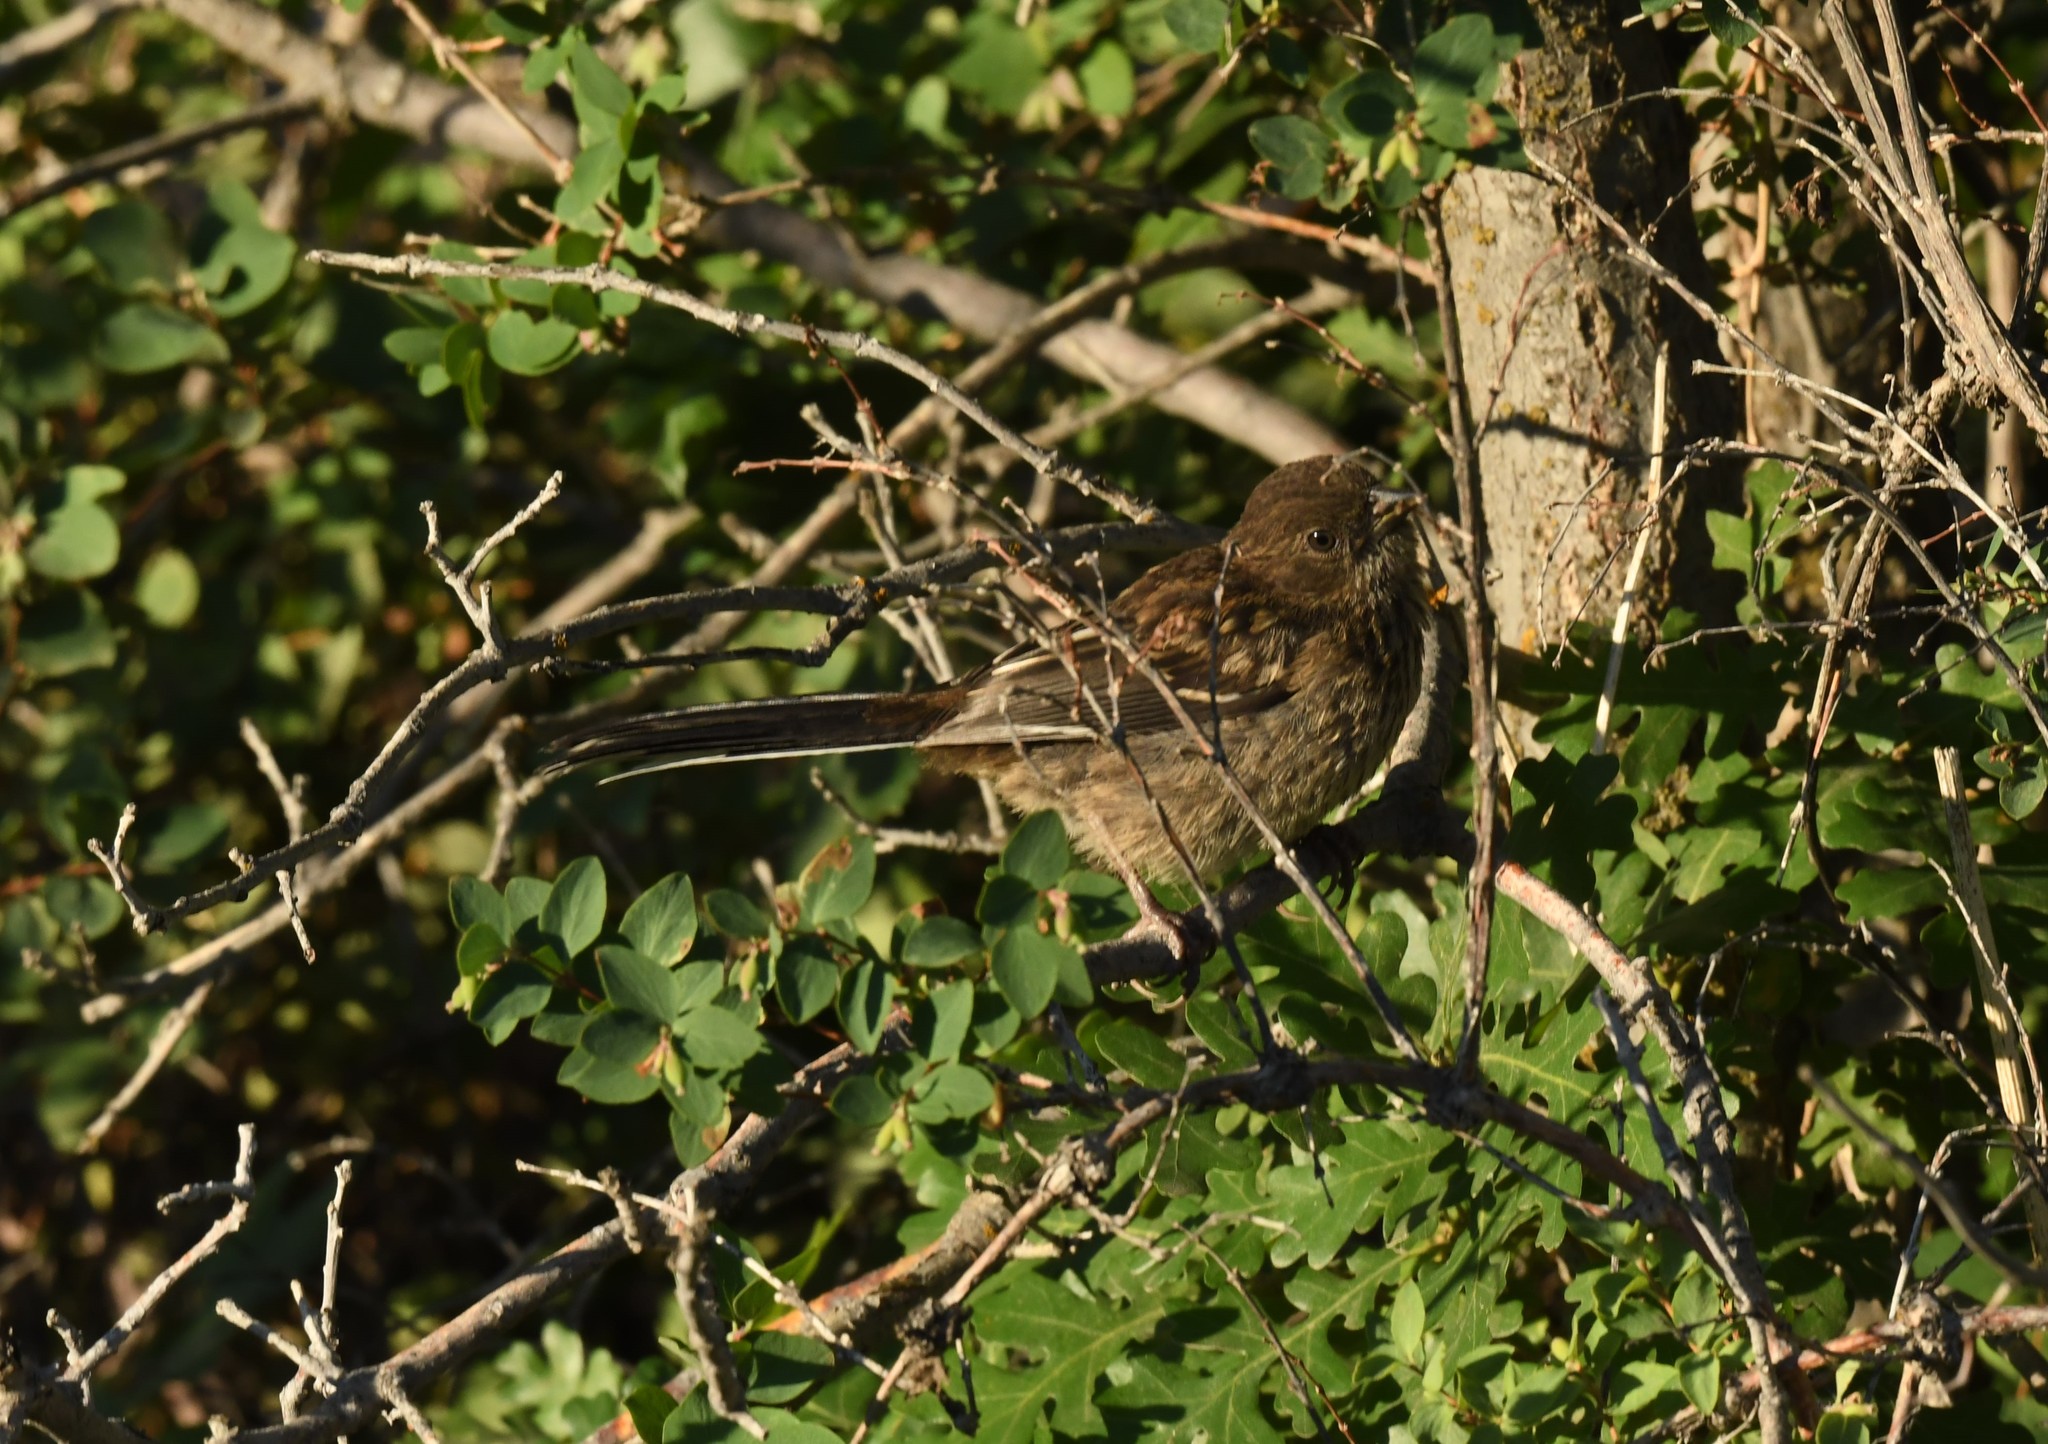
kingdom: Animalia
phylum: Chordata
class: Aves
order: Passeriformes
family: Passerellidae
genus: Pipilo
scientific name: Pipilo maculatus
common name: Spotted towhee
